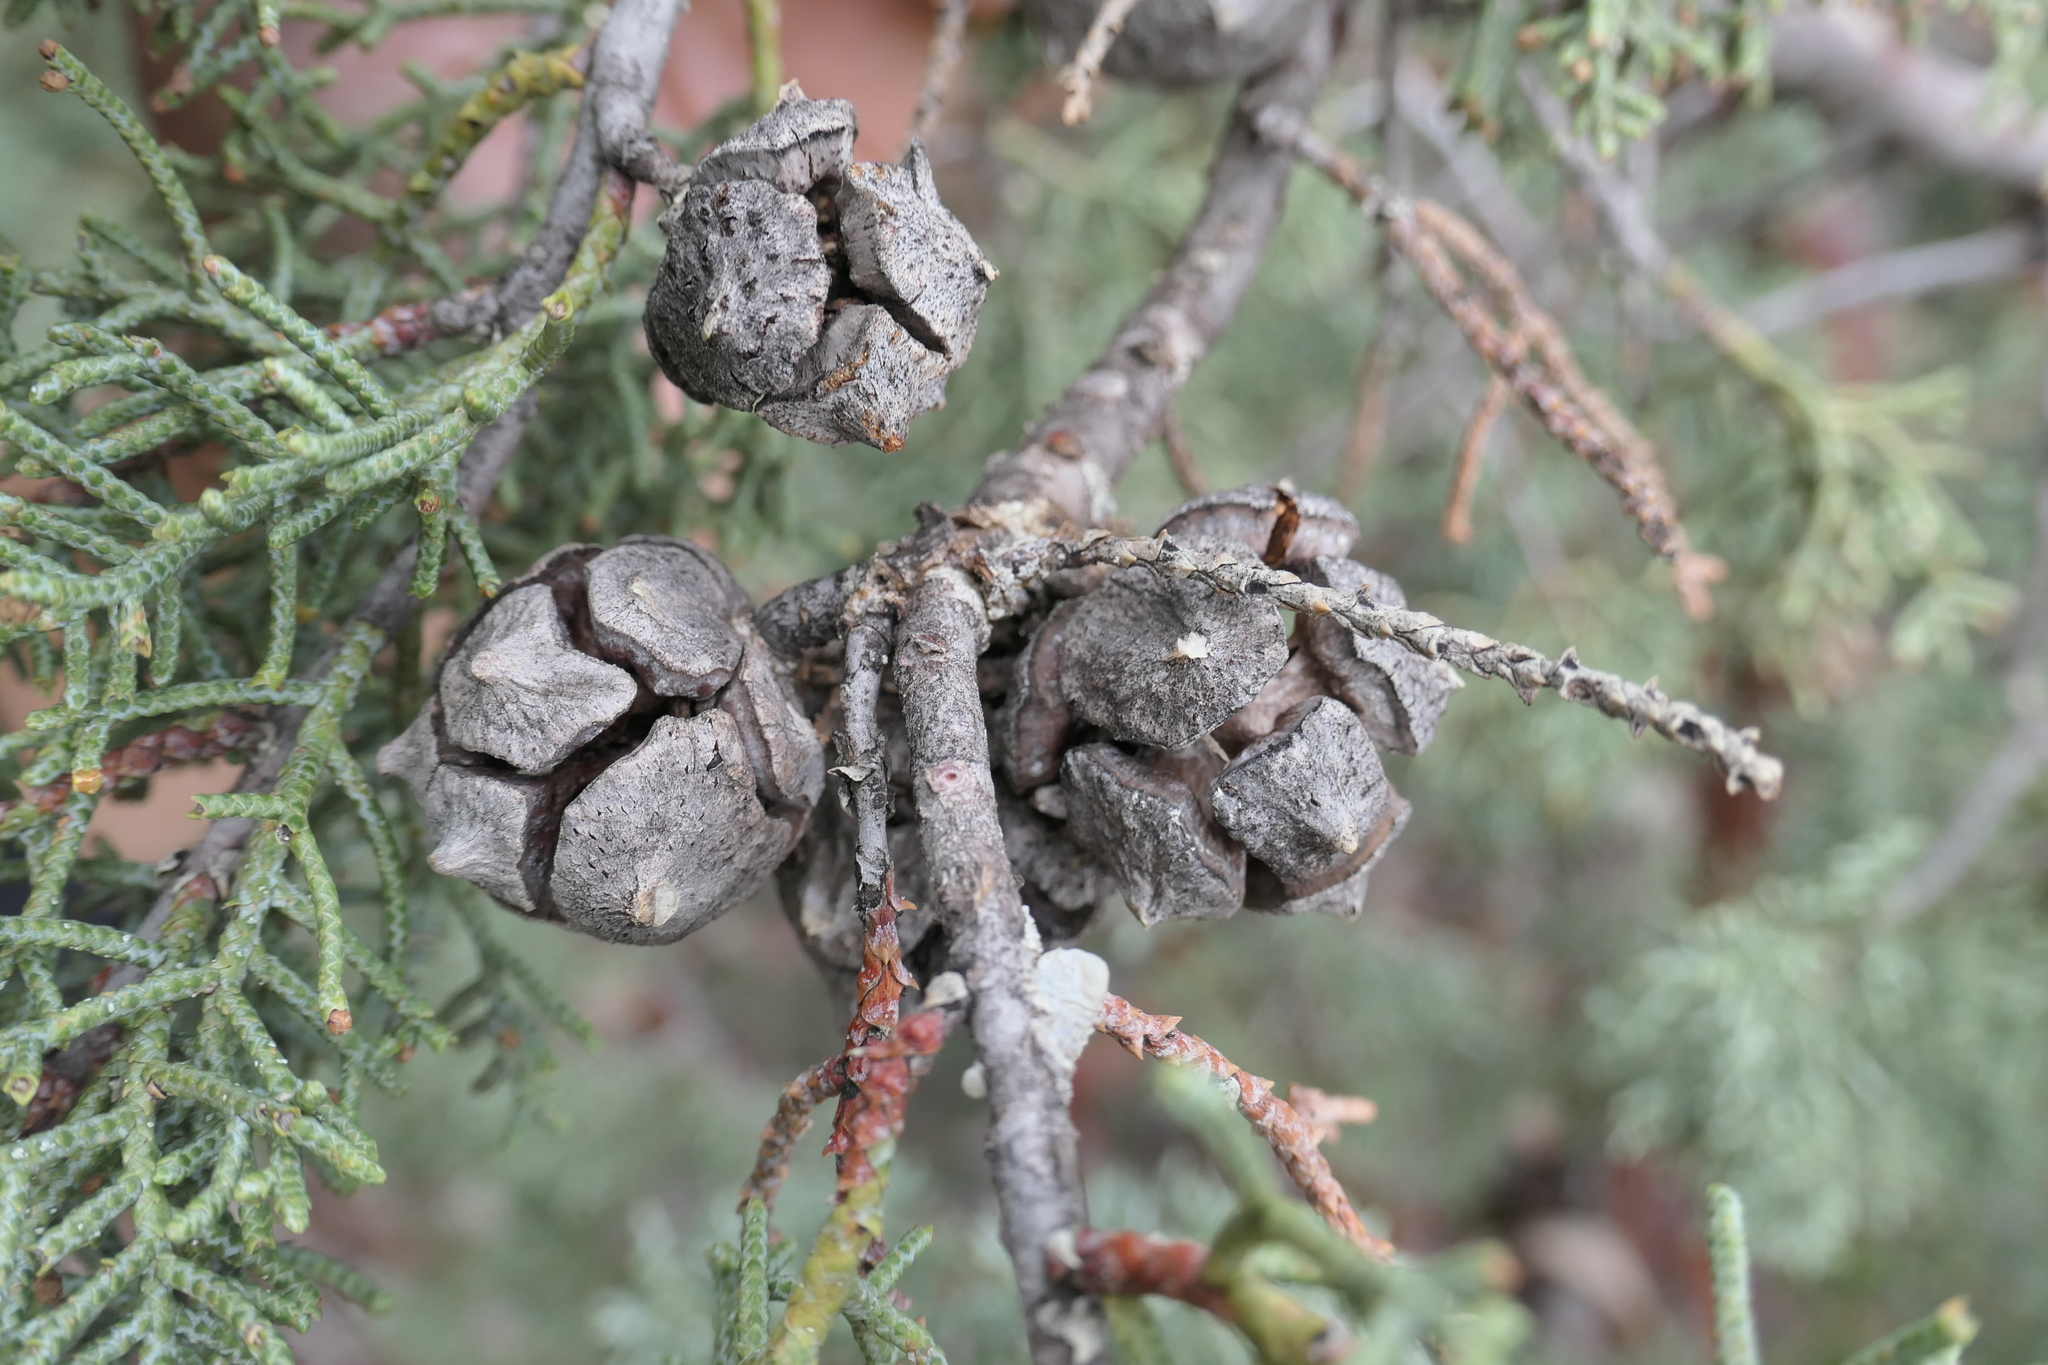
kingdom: Plantae
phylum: Tracheophyta
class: Pinopsida
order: Pinales
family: Cupressaceae
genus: Cupressus
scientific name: Cupressus arizonica
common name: Arizona cypress
